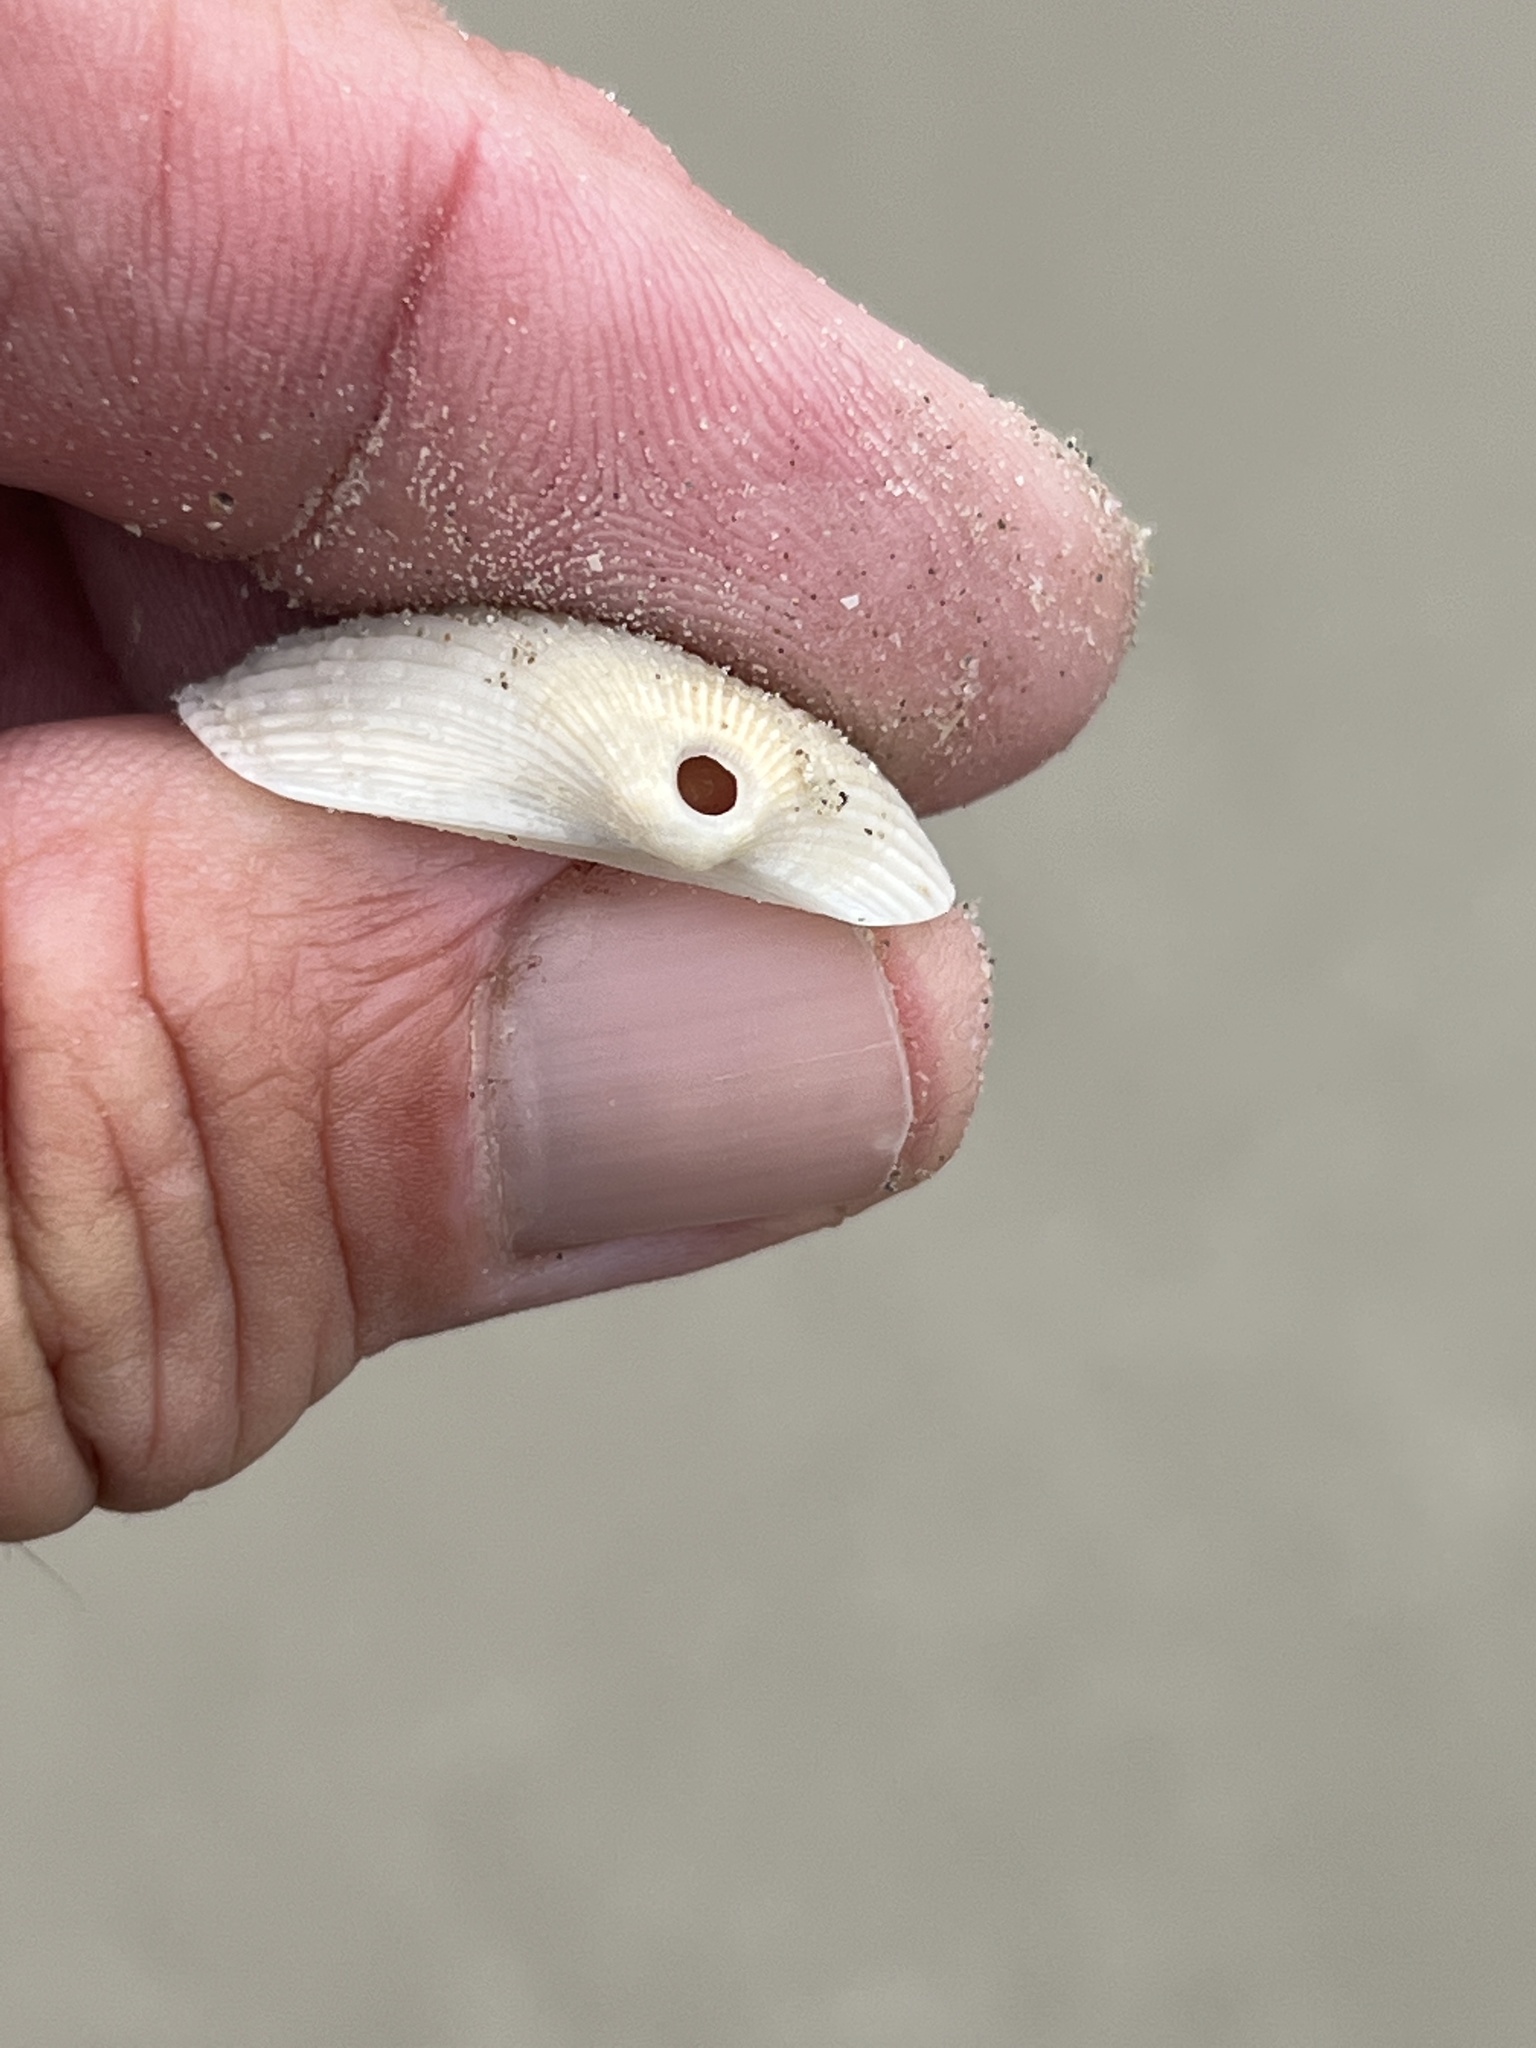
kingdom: Animalia
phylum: Mollusca
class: Bivalvia
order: Arcida
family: Arcidae
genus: Anadara
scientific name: Anadara transversa
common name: Transverse ark
